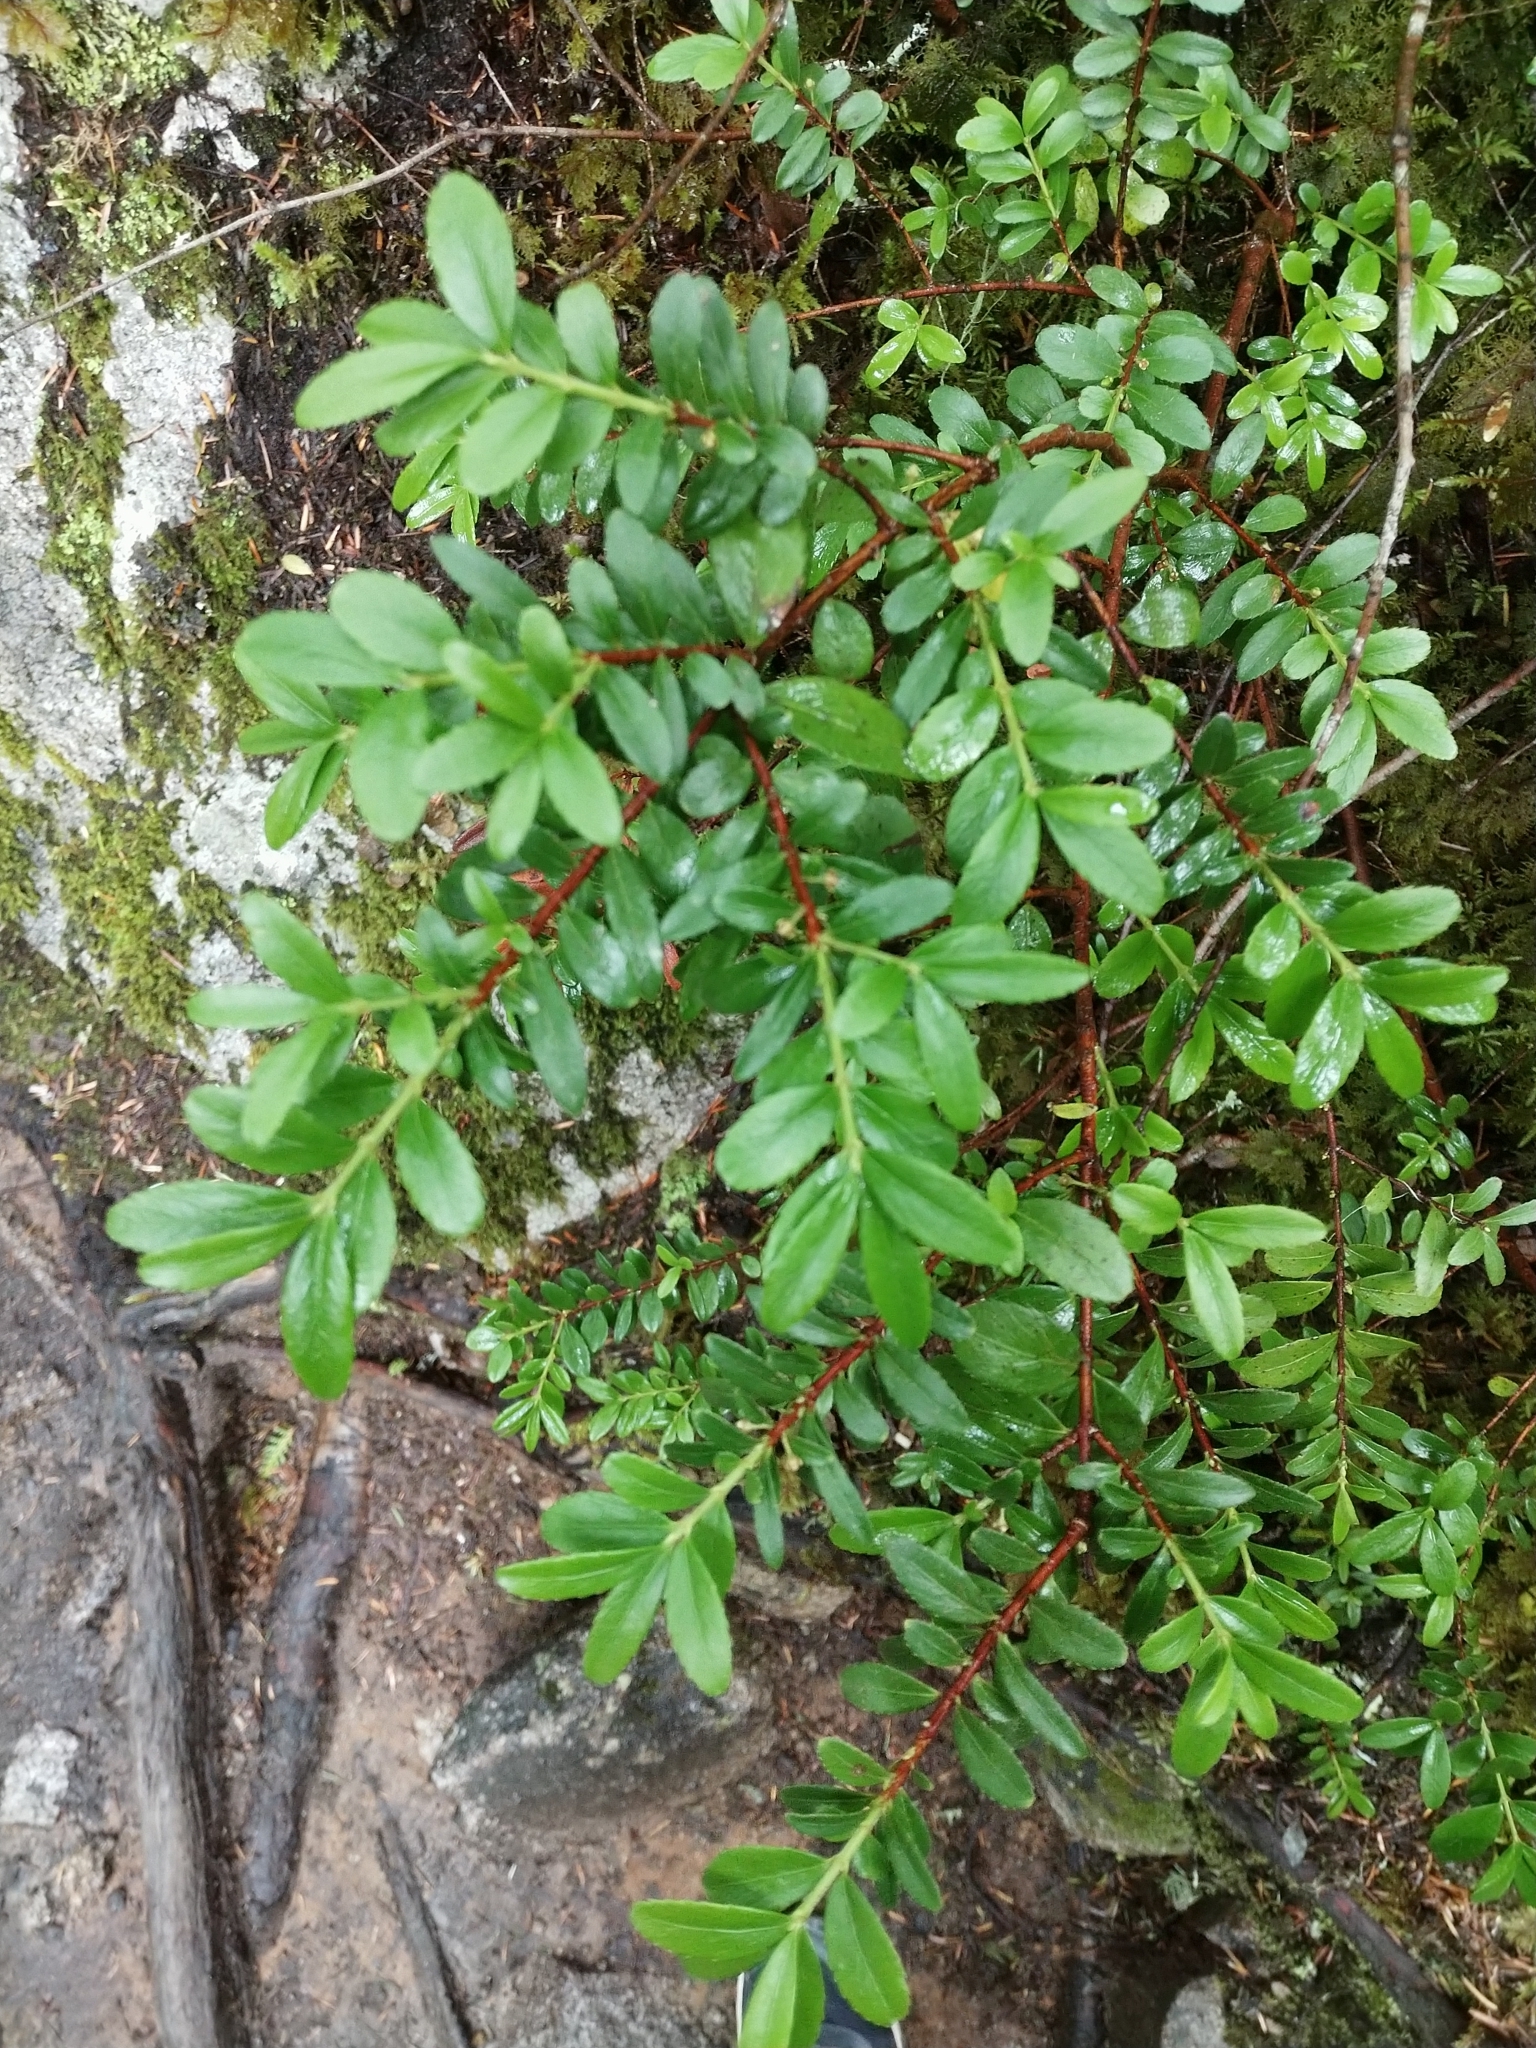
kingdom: Plantae
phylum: Tracheophyta
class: Magnoliopsida
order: Celastrales
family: Celastraceae
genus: Paxistima
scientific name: Paxistima myrsinites
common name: Mountain-lover
